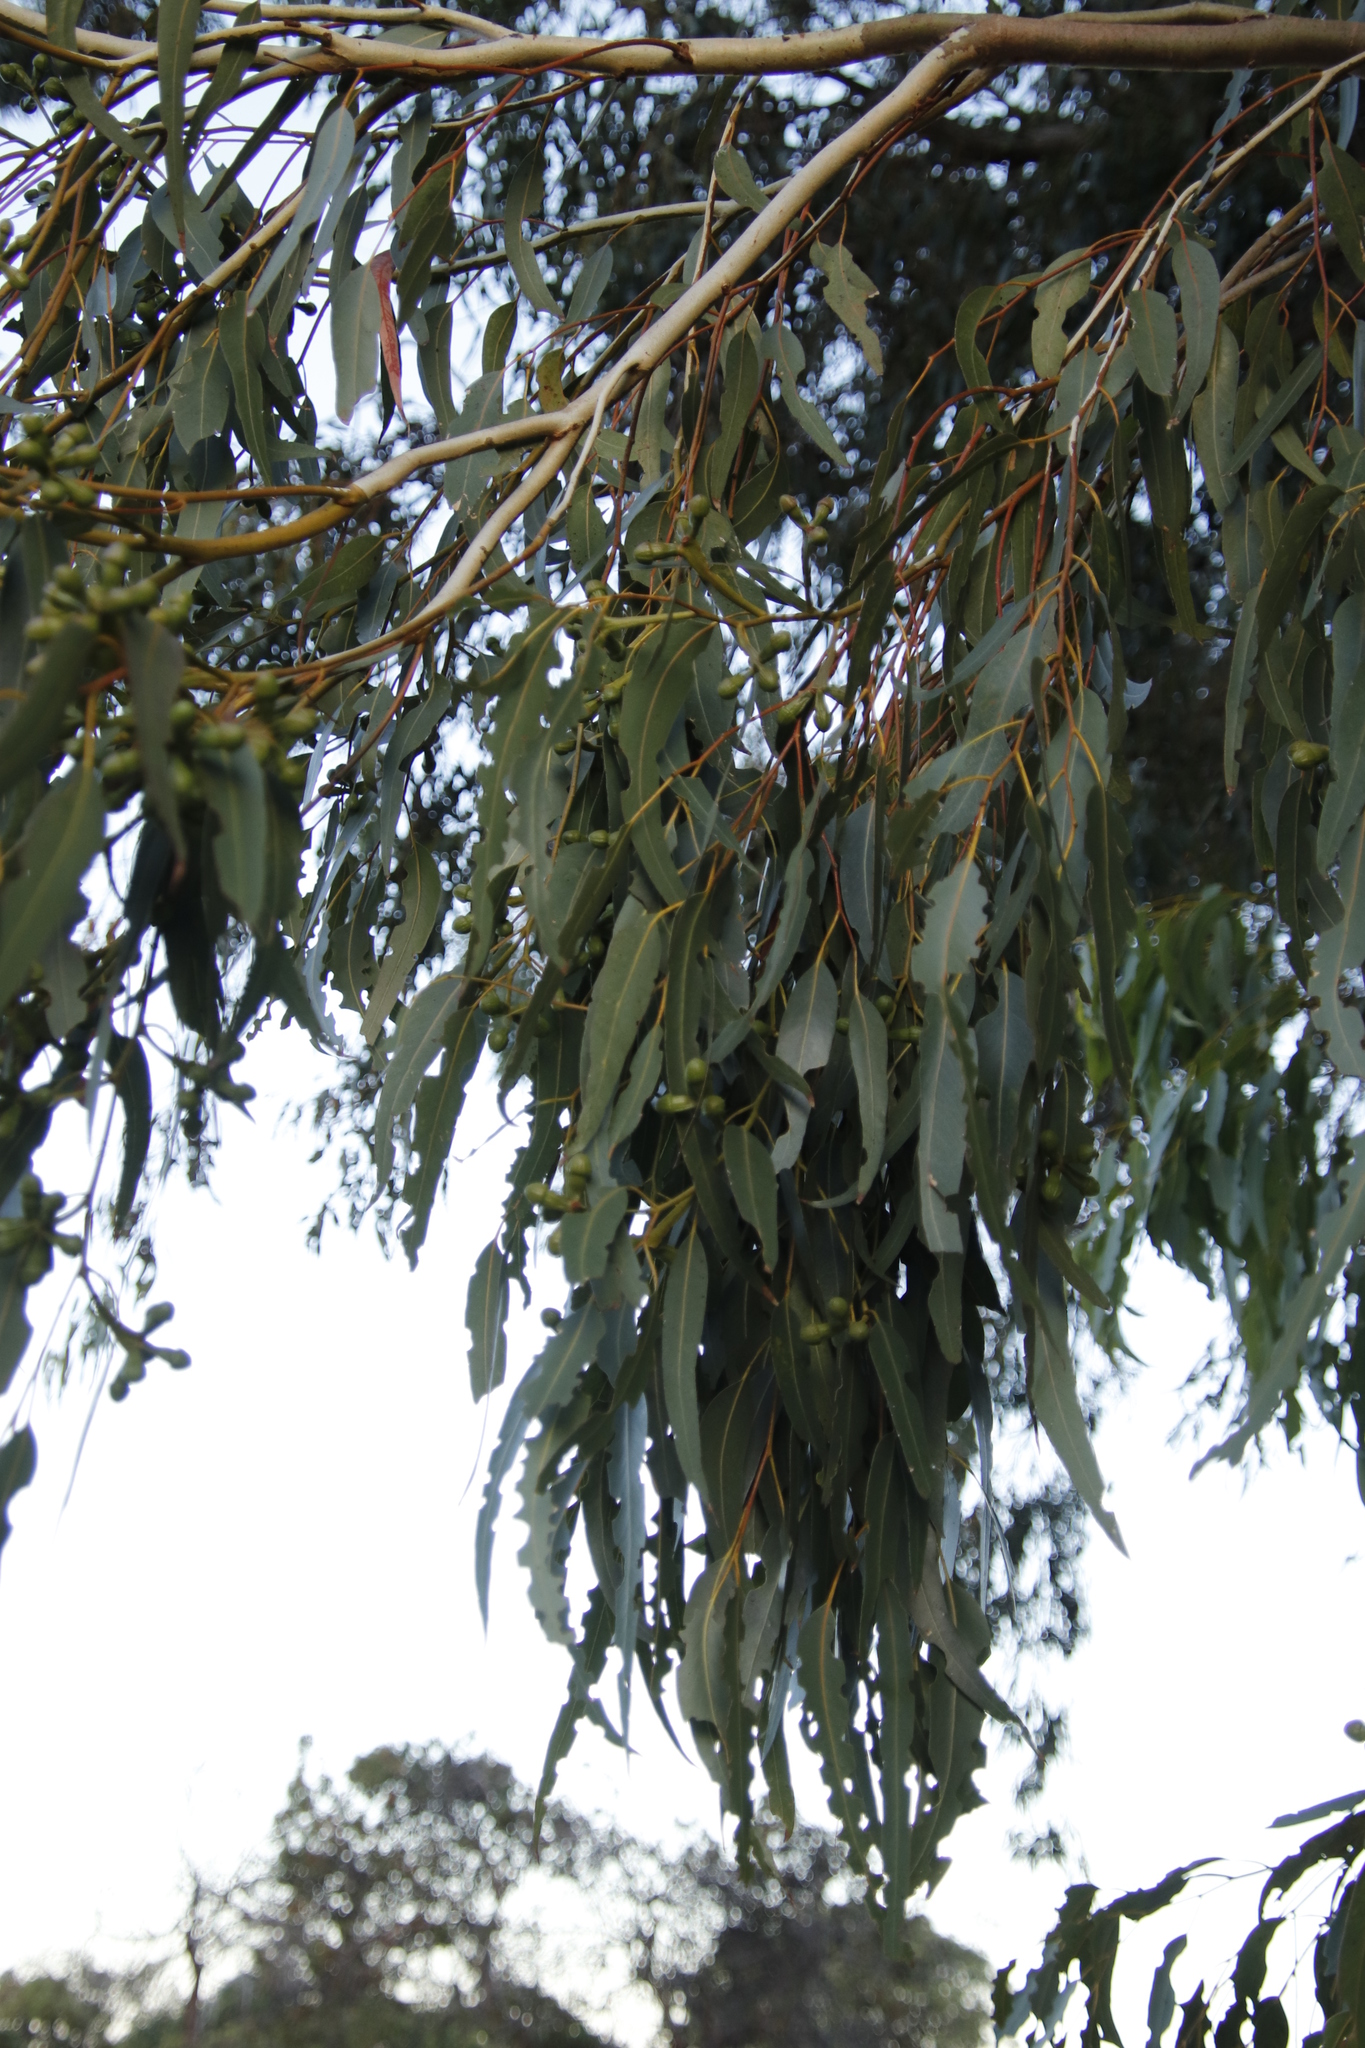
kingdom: Animalia
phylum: Arthropoda
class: Insecta
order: Coleoptera
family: Curculionidae
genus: Gonipterus
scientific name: Gonipterus
